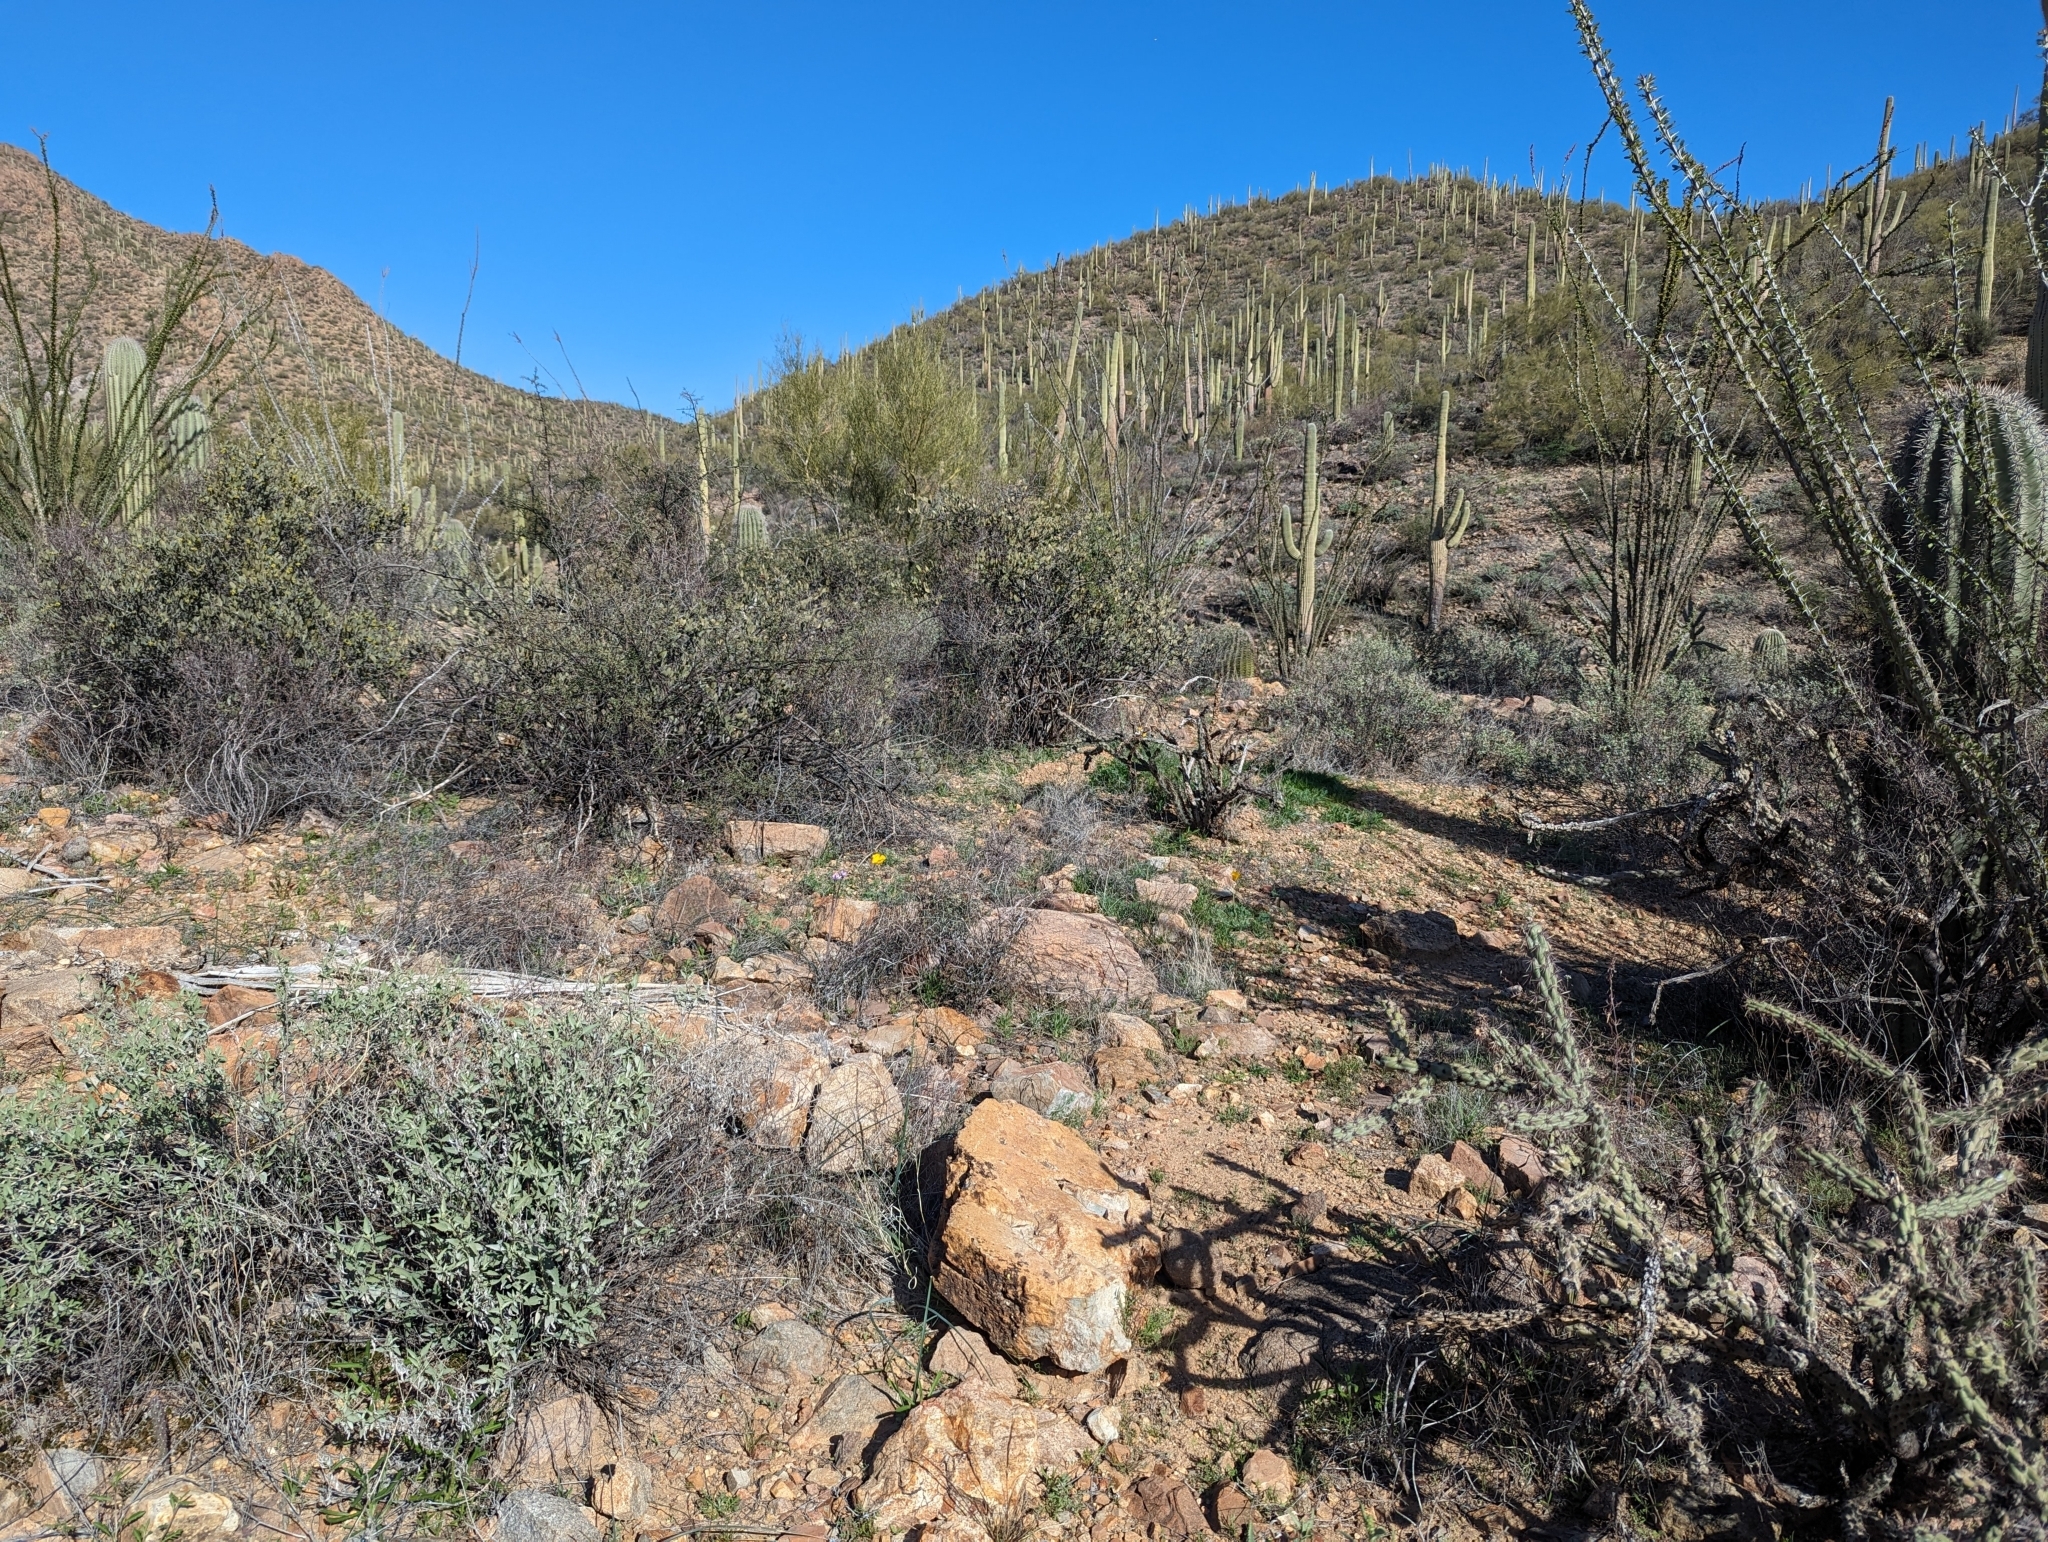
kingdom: Plantae
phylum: Tracheophyta
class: Magnoliopsida
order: Ranunculales
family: Papaveraceae
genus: Eschscholzia
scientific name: Eschscholzia californica
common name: California poppy
